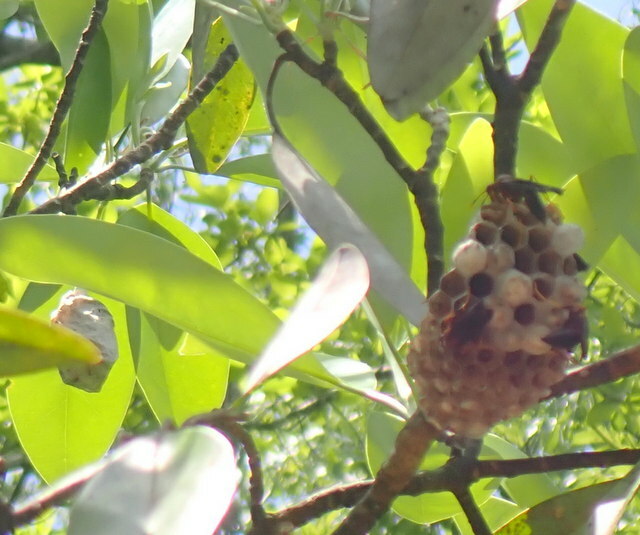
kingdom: Animalia
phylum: Arthropoda
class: Insecta
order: Hymenoptera
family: Eumenidae
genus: Polistes
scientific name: Polistes annularis
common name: Ringed paper wasp
